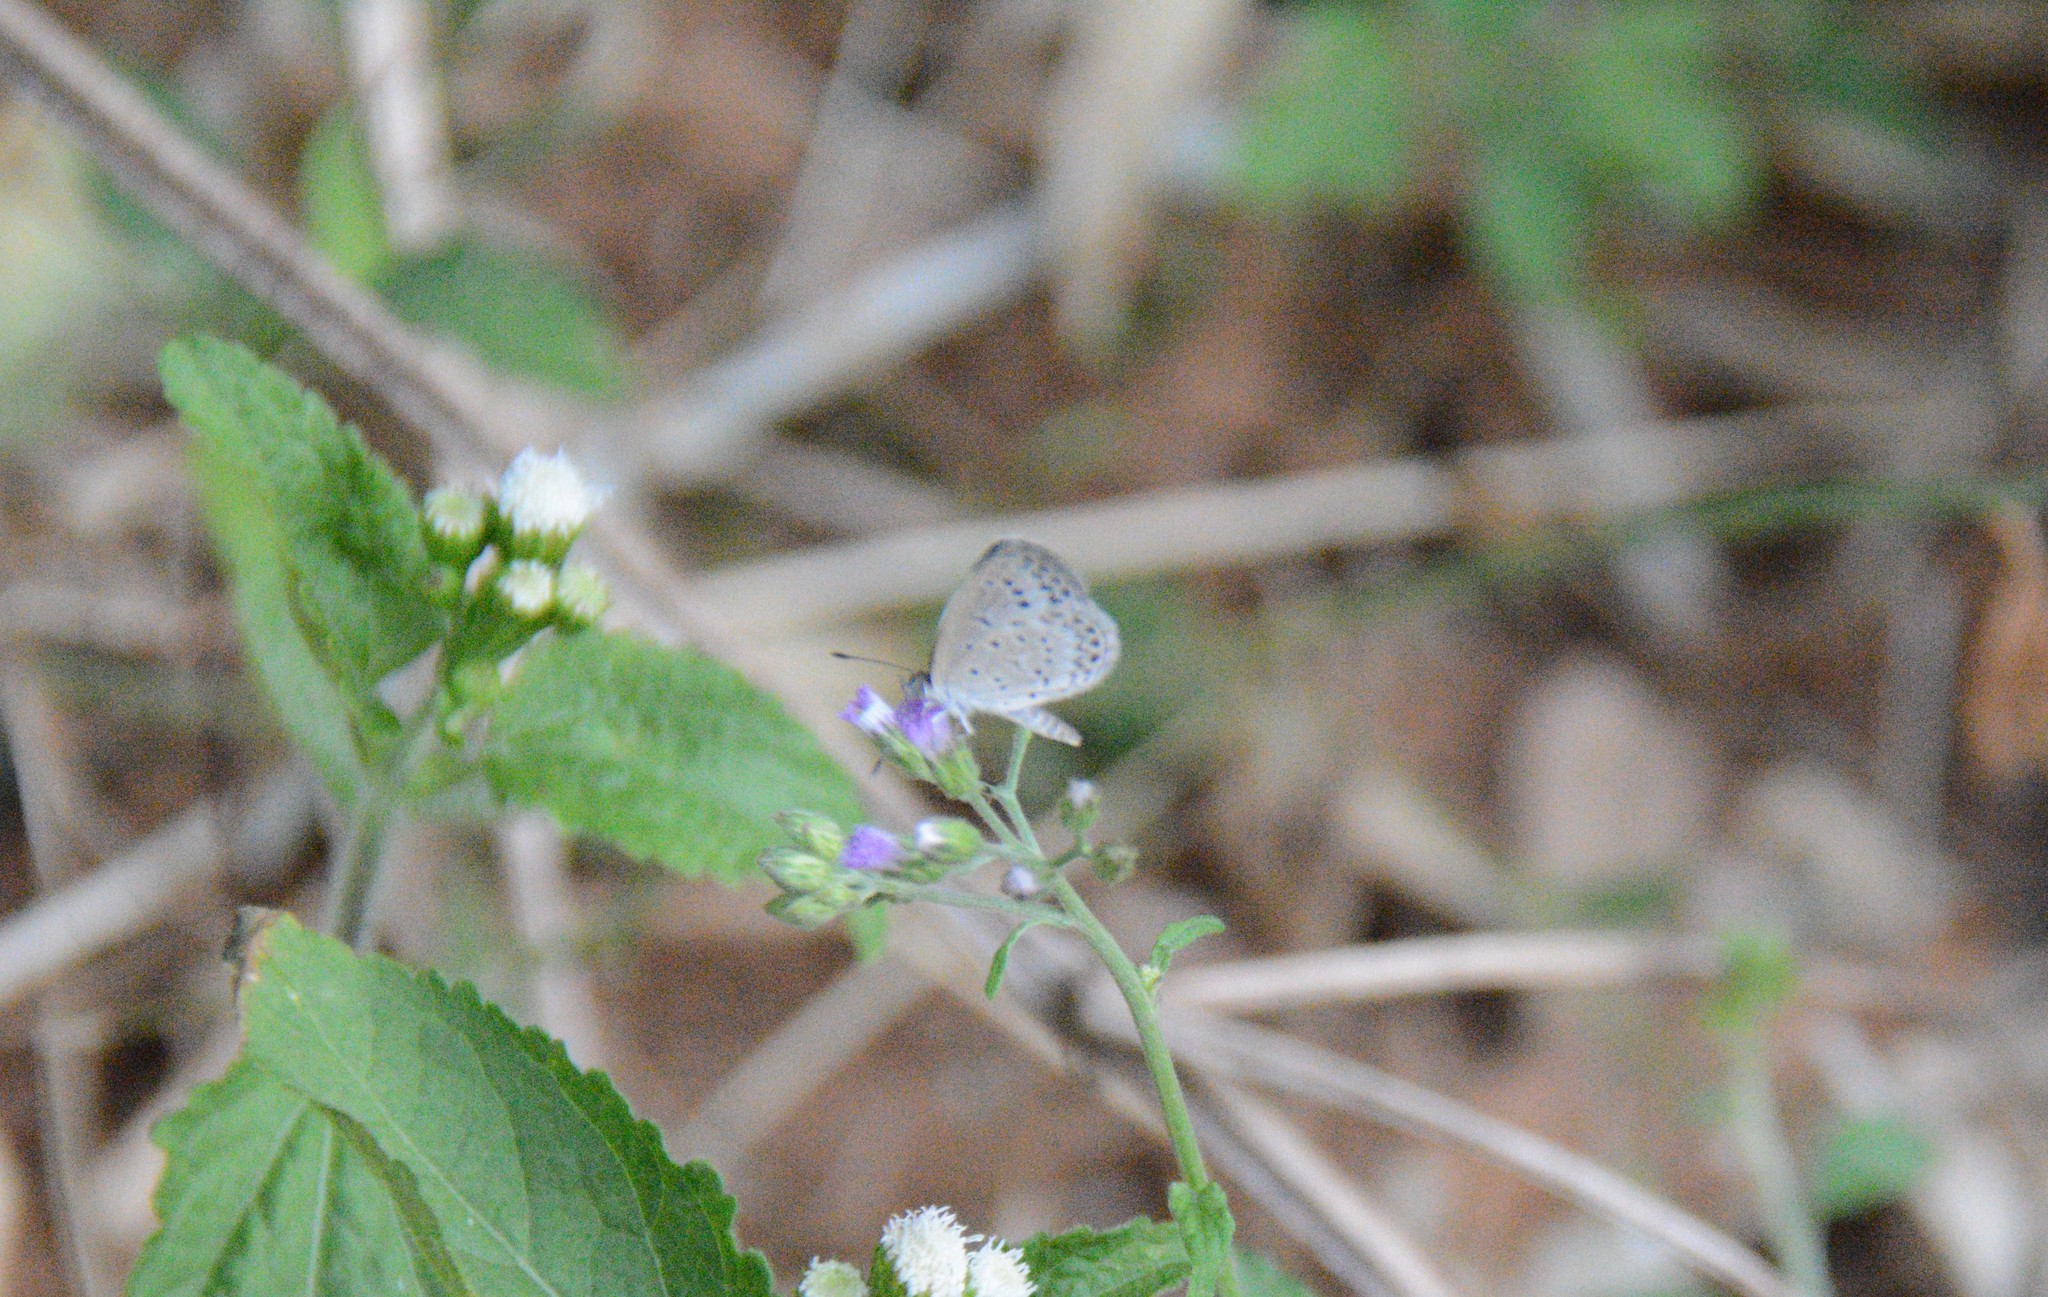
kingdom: Animalia
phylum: Arthropoda
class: Insecta
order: Lepidoptera
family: Lycaenidae
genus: Pseudozizeeria
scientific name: Pseudozizeeria maha
